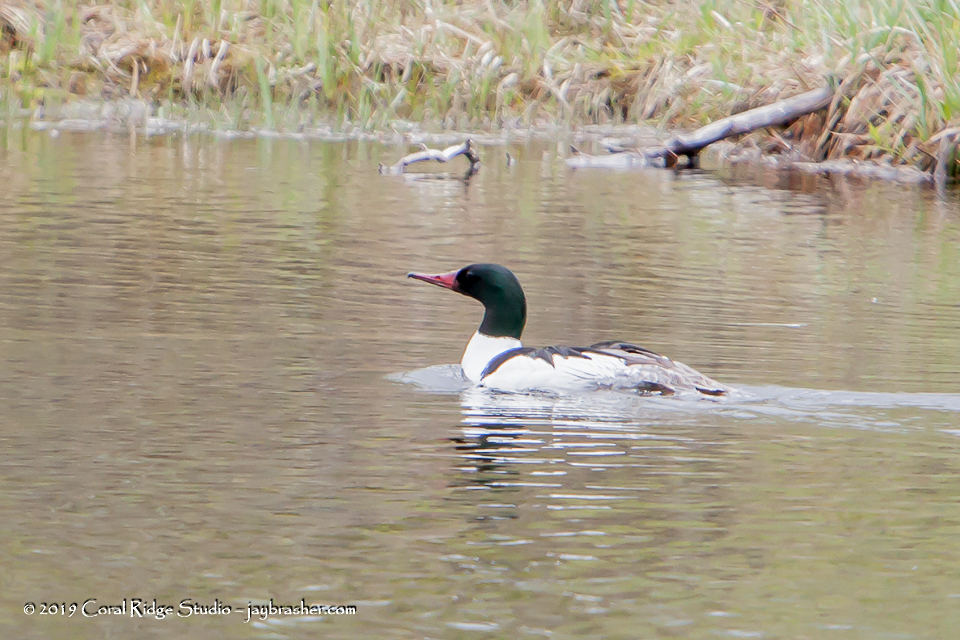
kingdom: Animalia
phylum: Chordata
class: Aves
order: Anseriformes
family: Anatidae
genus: Mergus
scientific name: Mergus merganser
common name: Common merganser
